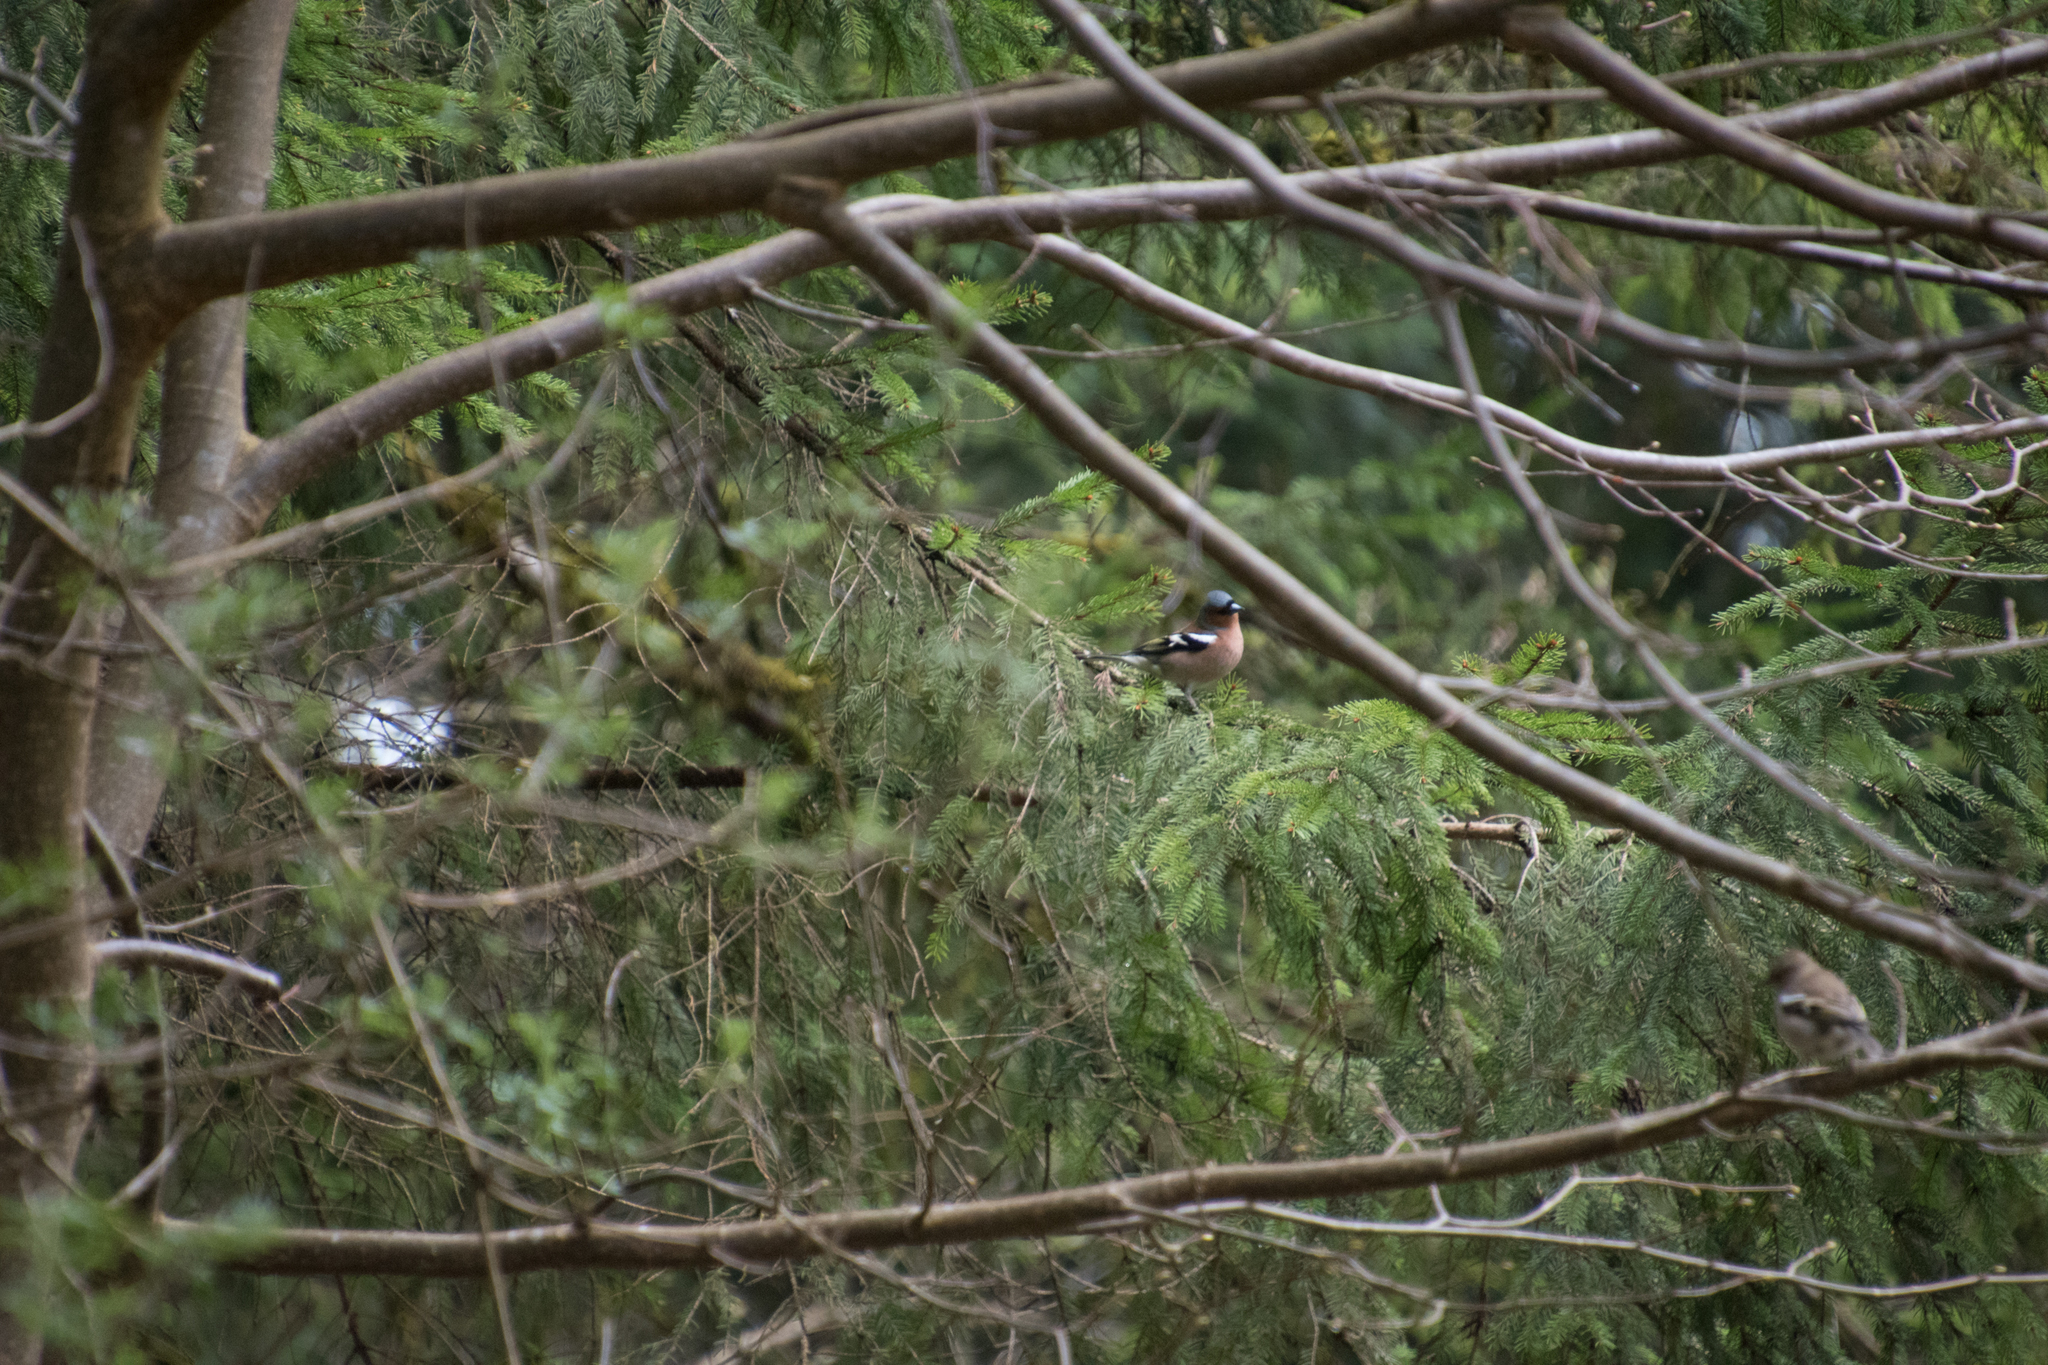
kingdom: Animalia
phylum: Chordata
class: Aves
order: Passeriformes
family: Fringillidae
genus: Fringilla
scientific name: Fringilla coelebs
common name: Common chaffinch
